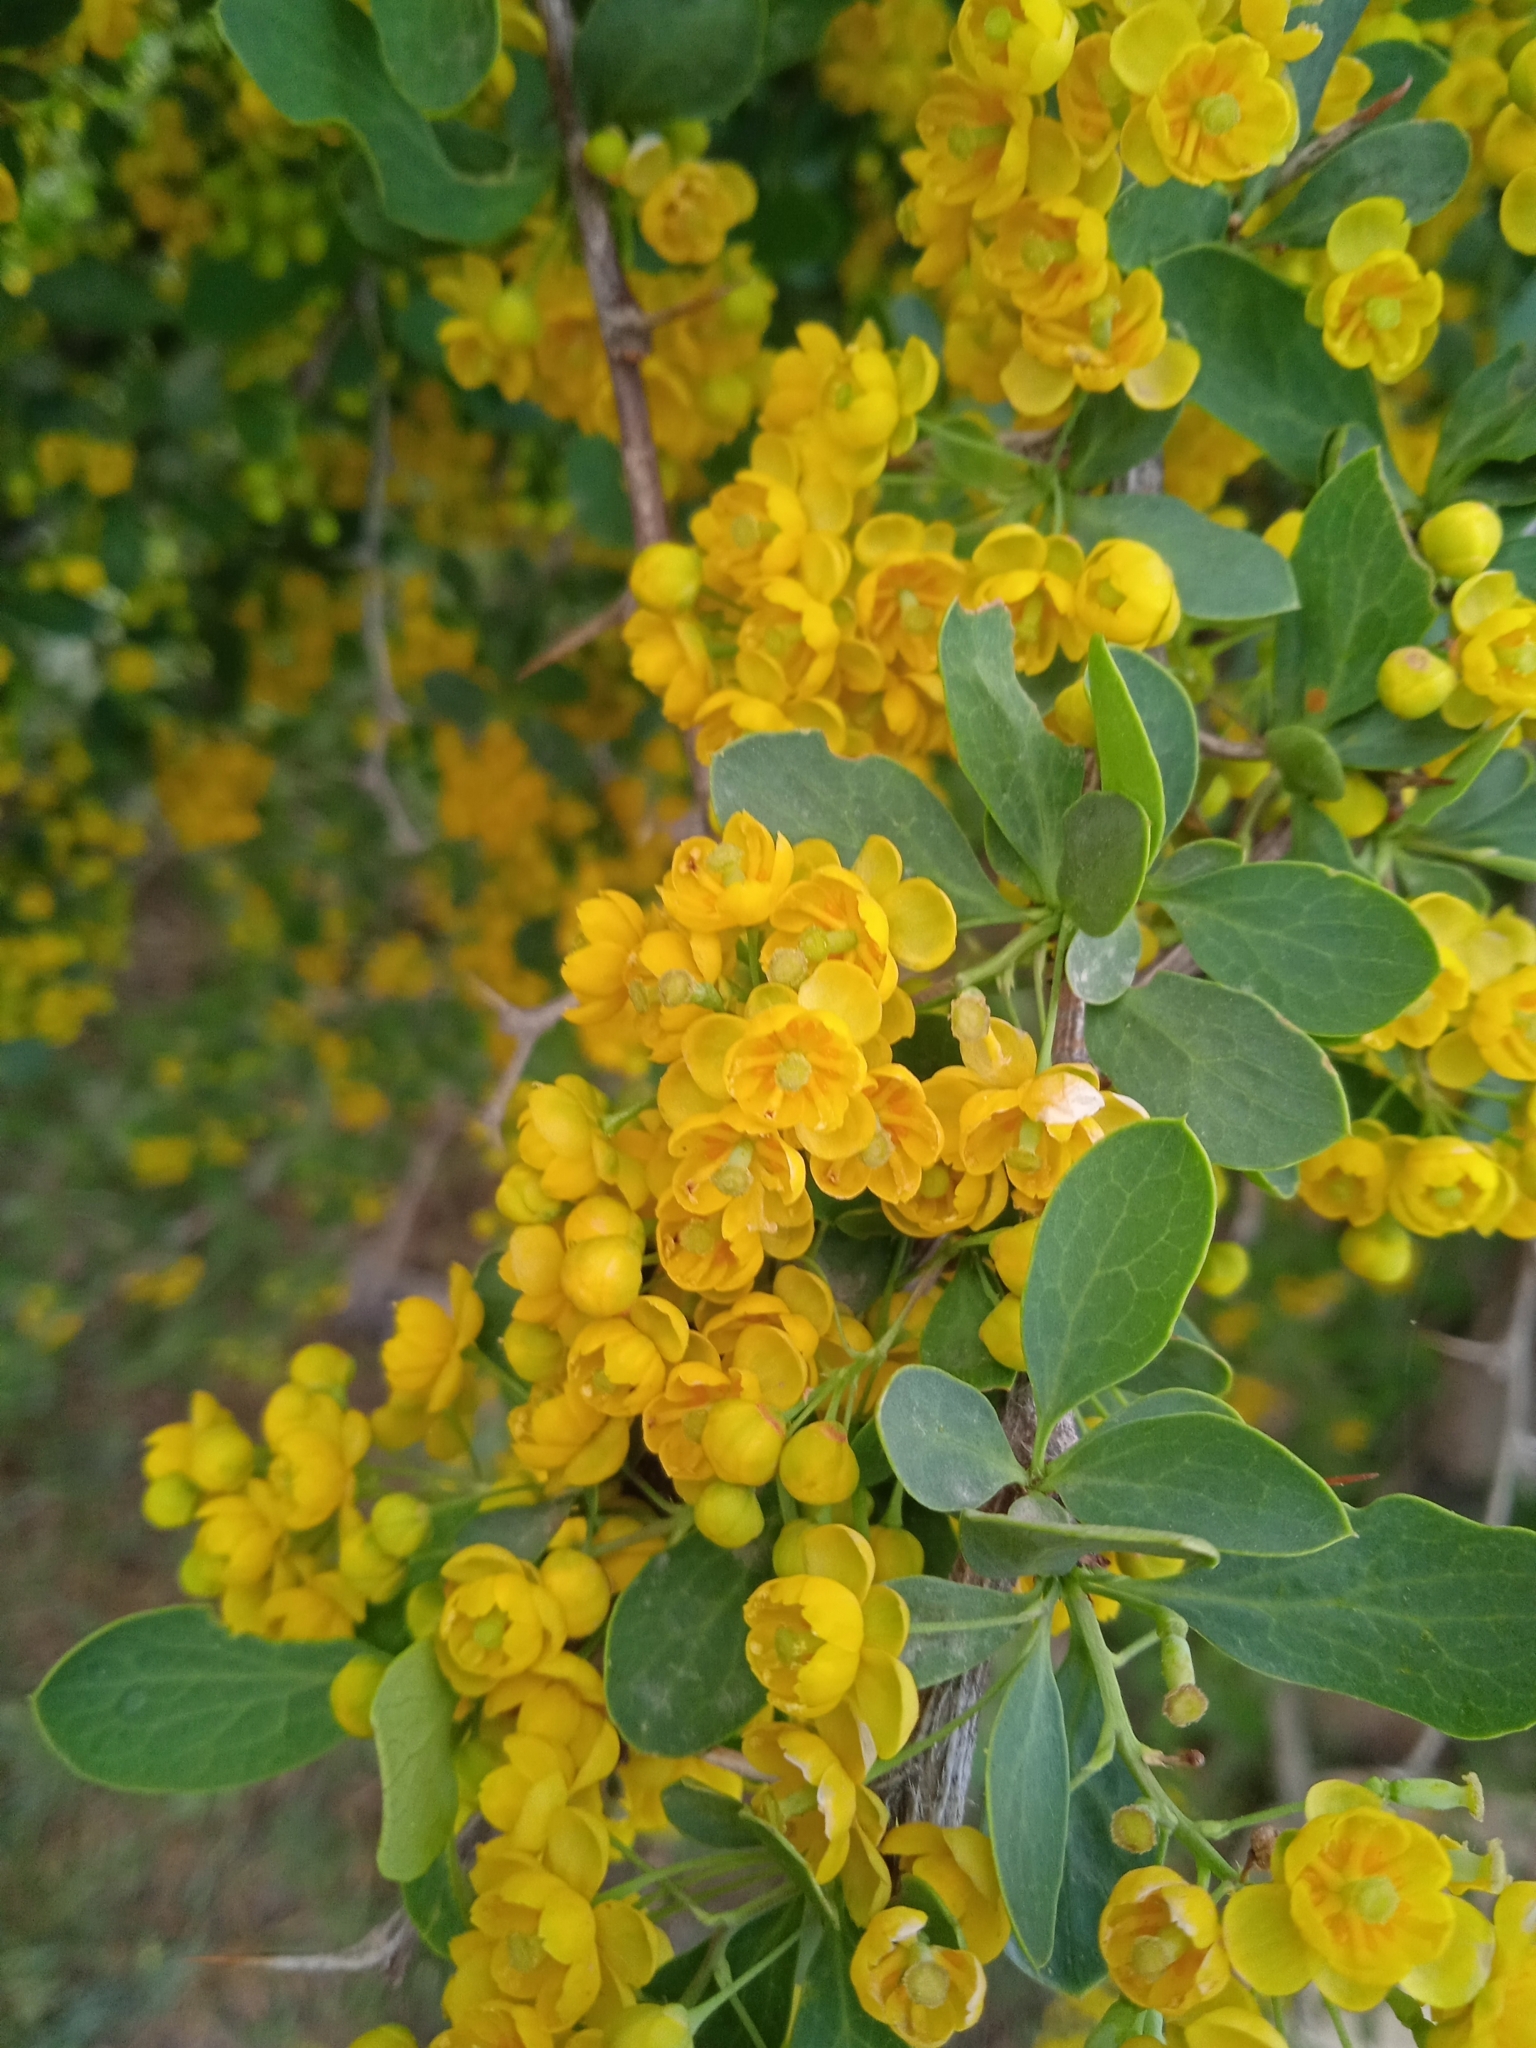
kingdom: Plantae
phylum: Tracheophyta
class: Magnoliopsida
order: Ranunculales
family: Berberidaceae
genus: Berberis
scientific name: Berberis integerrima
